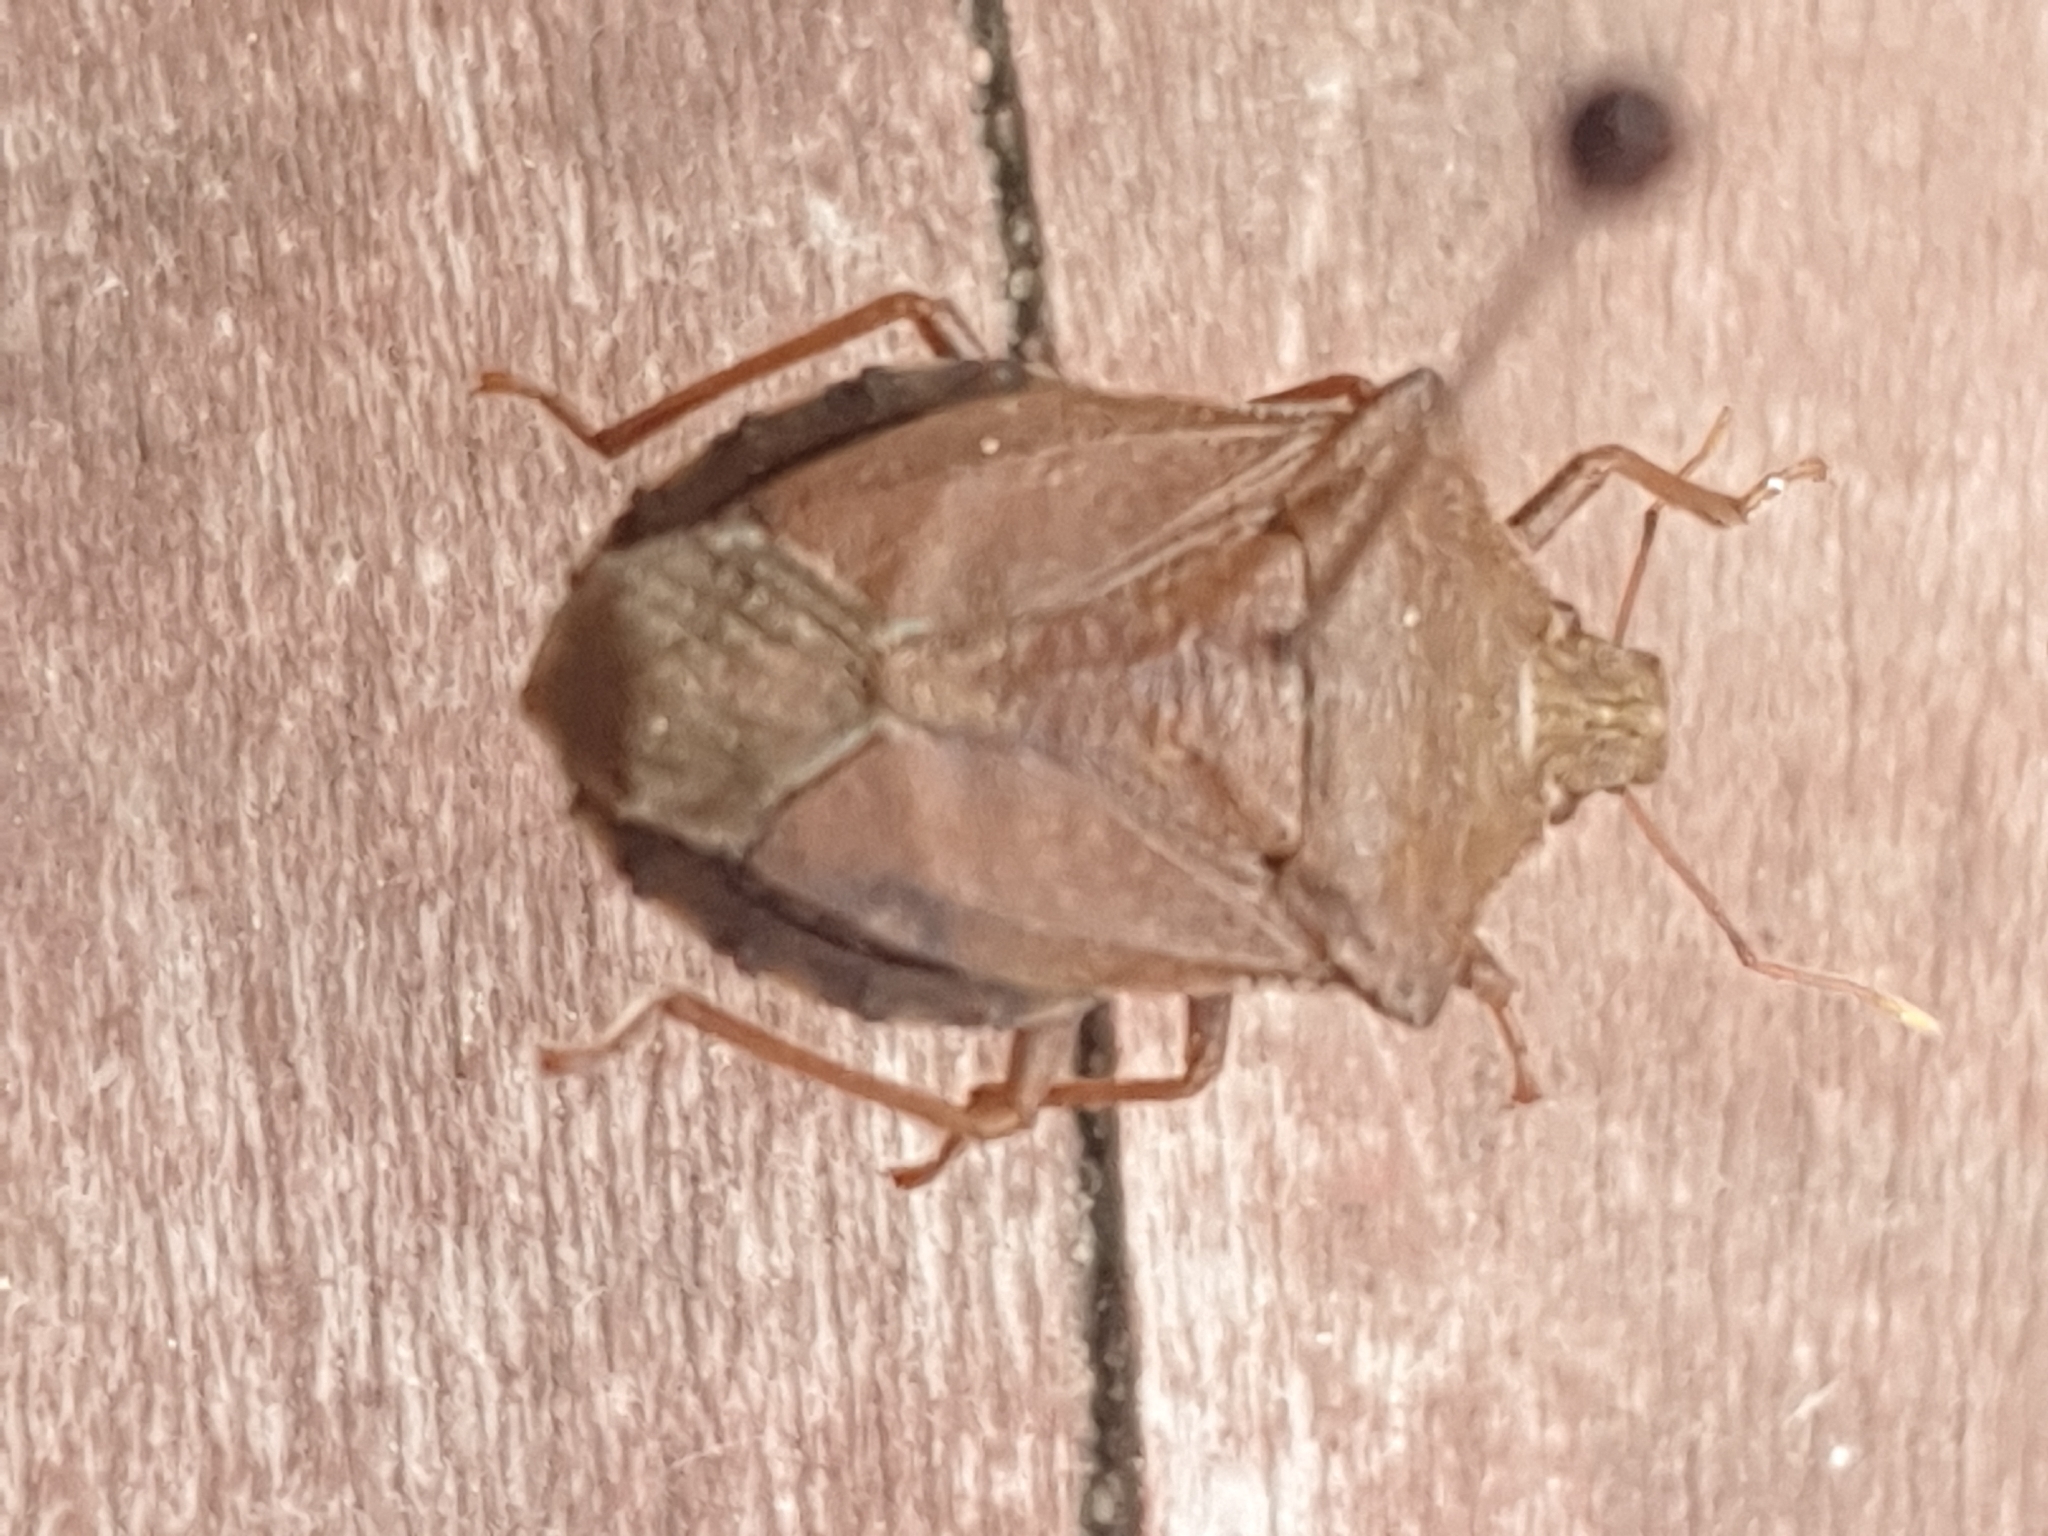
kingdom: Animalia
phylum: Arthropoda
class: Insecta
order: Hemiptera
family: Pentatomidae
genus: Arma
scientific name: Arma custos
